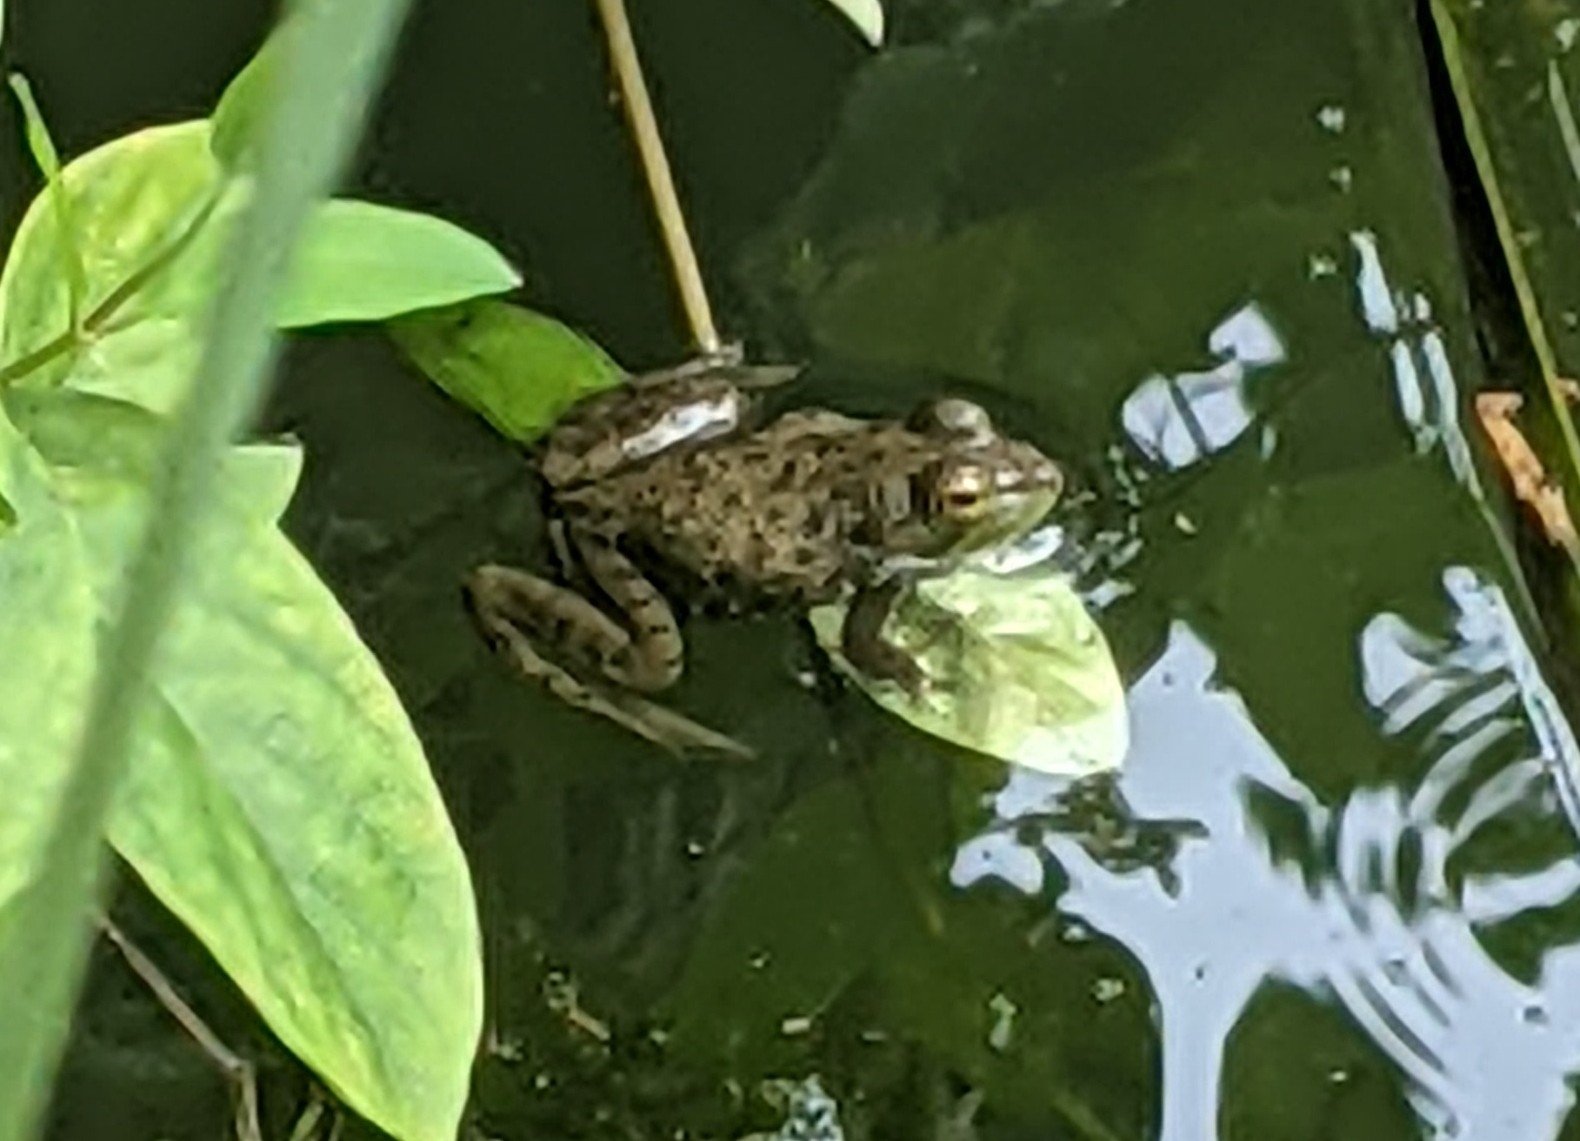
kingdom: Animalia
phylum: Chordata
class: Amphibia
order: Anura
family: Ranidae
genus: Lithobates
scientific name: Lithobates catesbeianus
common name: American bullfrog
